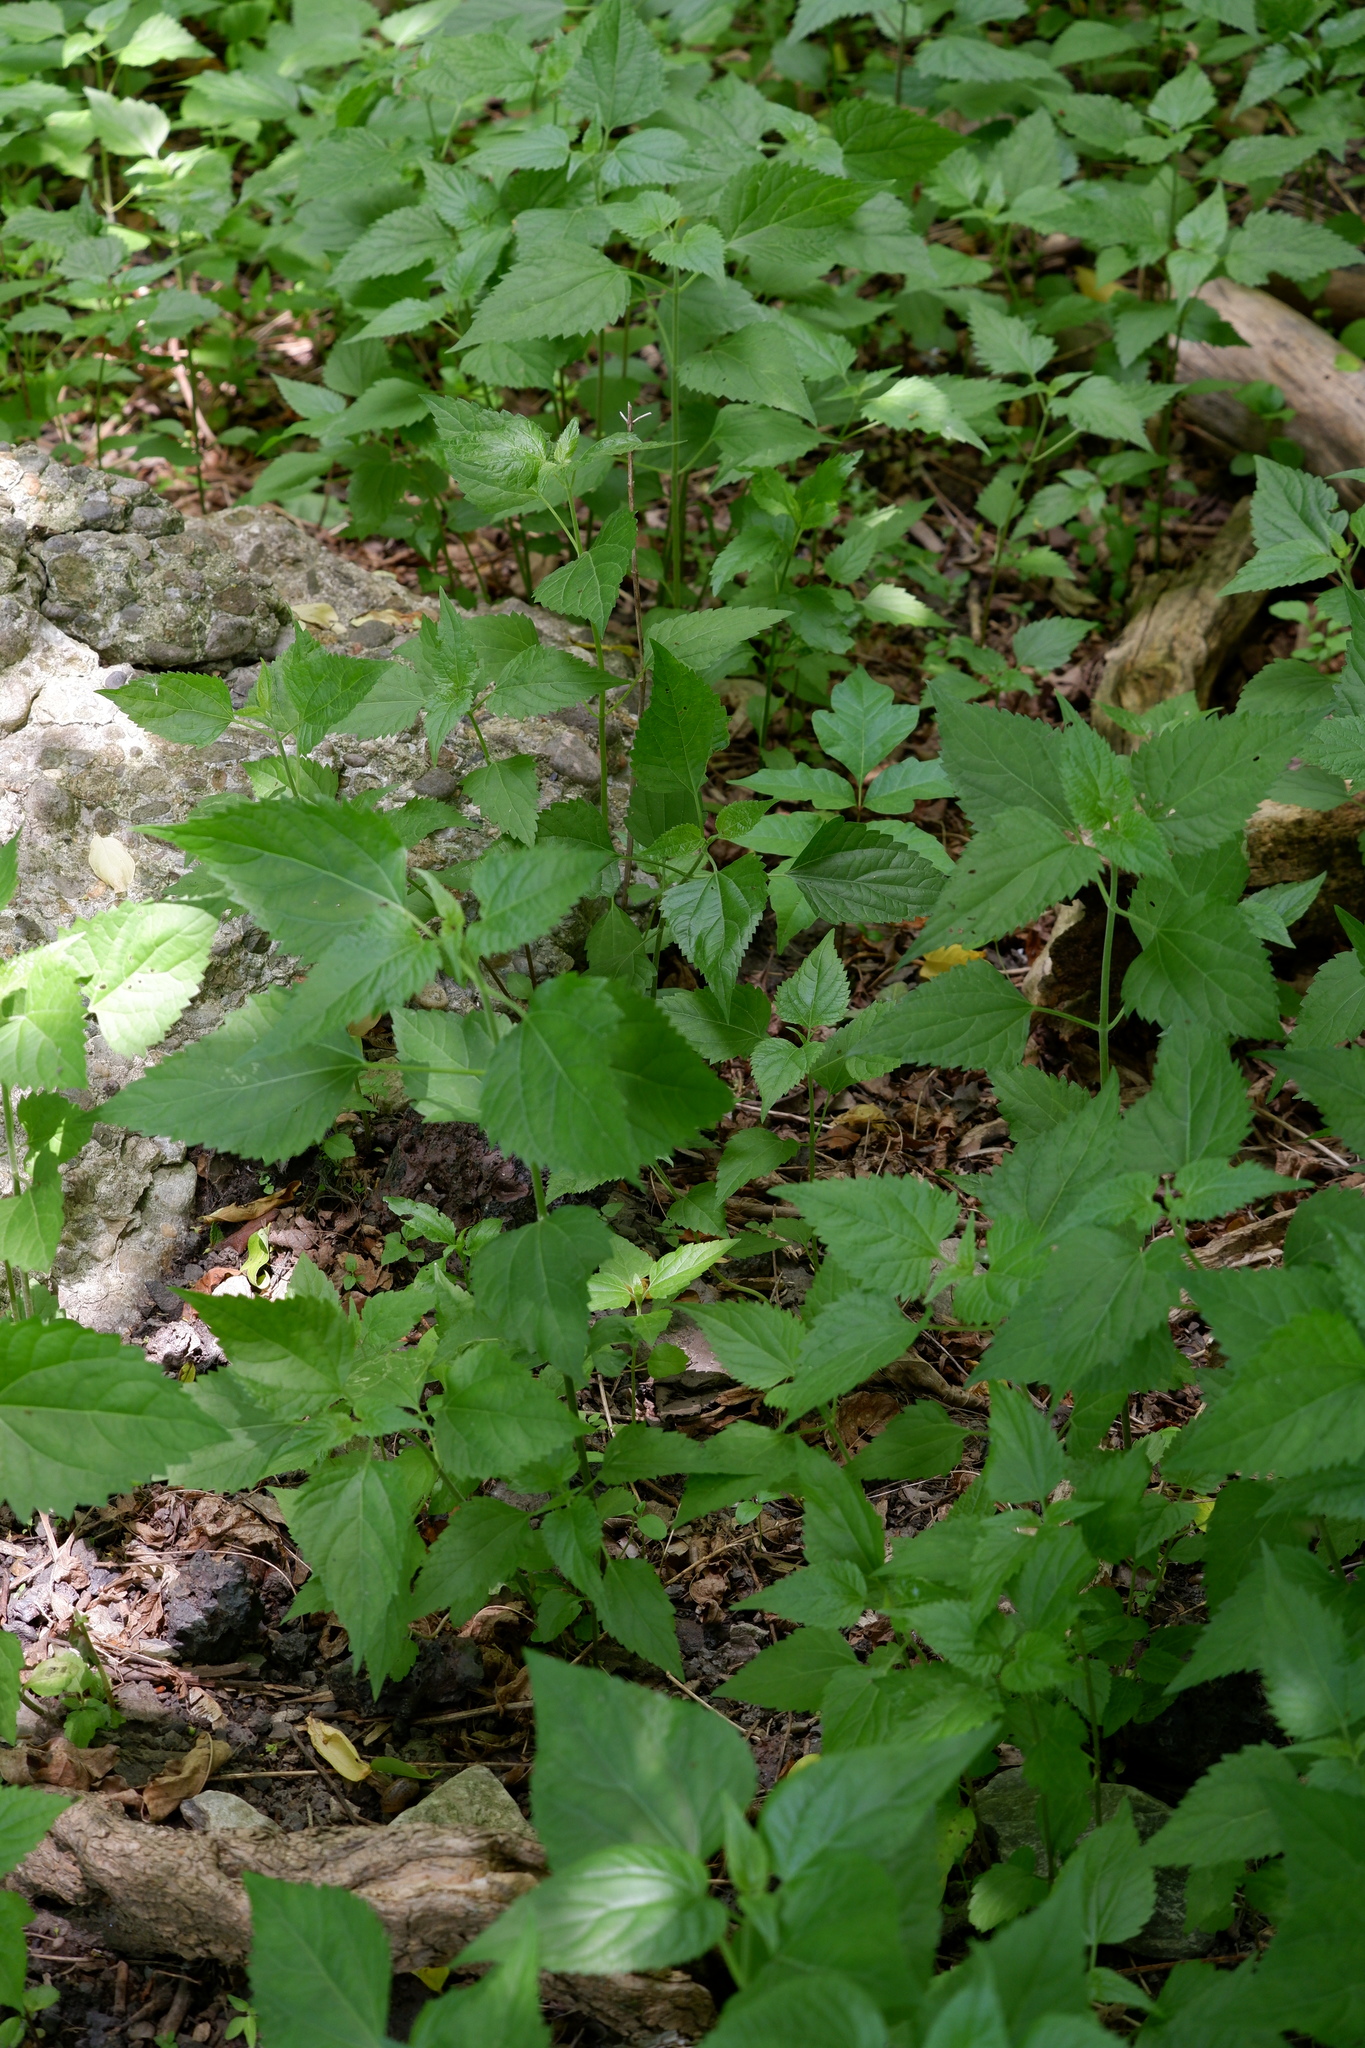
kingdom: Plantae
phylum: Tracheophyta
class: Magnoliopsida
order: Asterales
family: Asteraceae
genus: Ageratina
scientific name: Ageratina altissima
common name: White snakeroot
